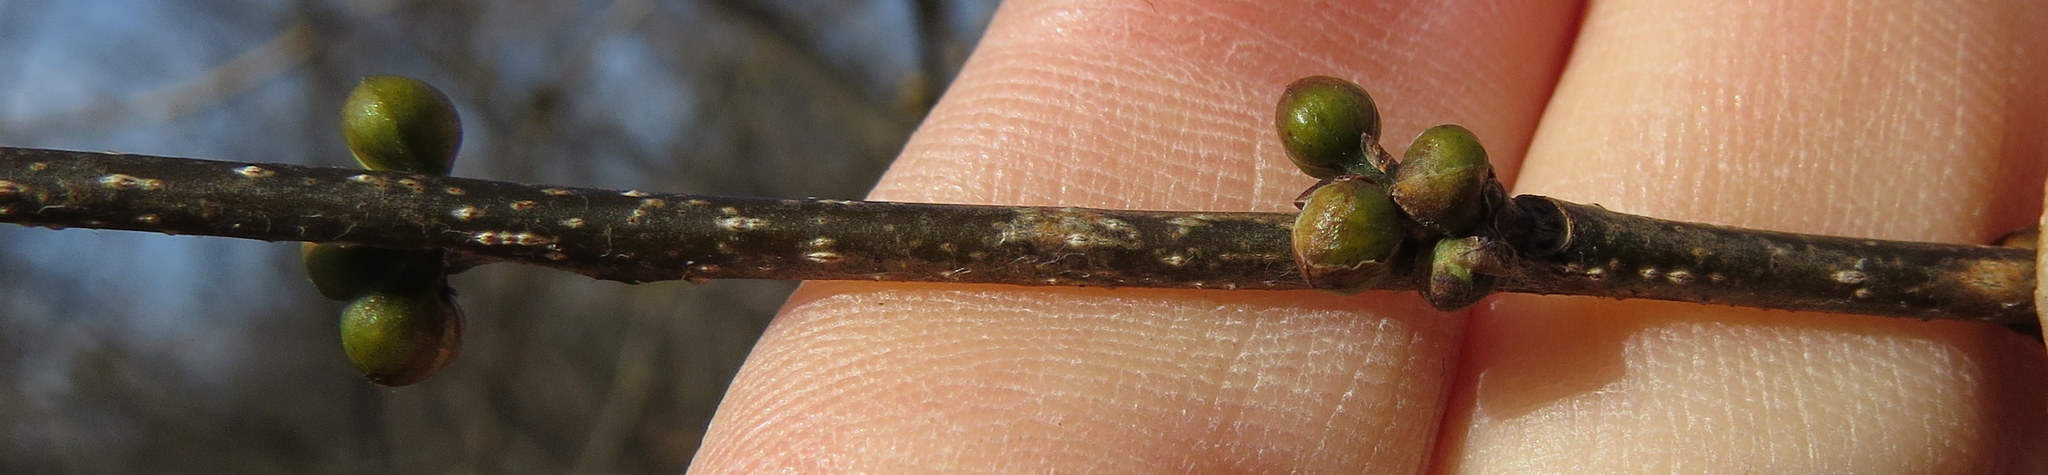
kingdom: Plantae
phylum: Tracheophyta
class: Magnoliopsida
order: Laurales
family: Lauraceae
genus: Lindera
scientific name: Lindera benzoin
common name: Spicebush
